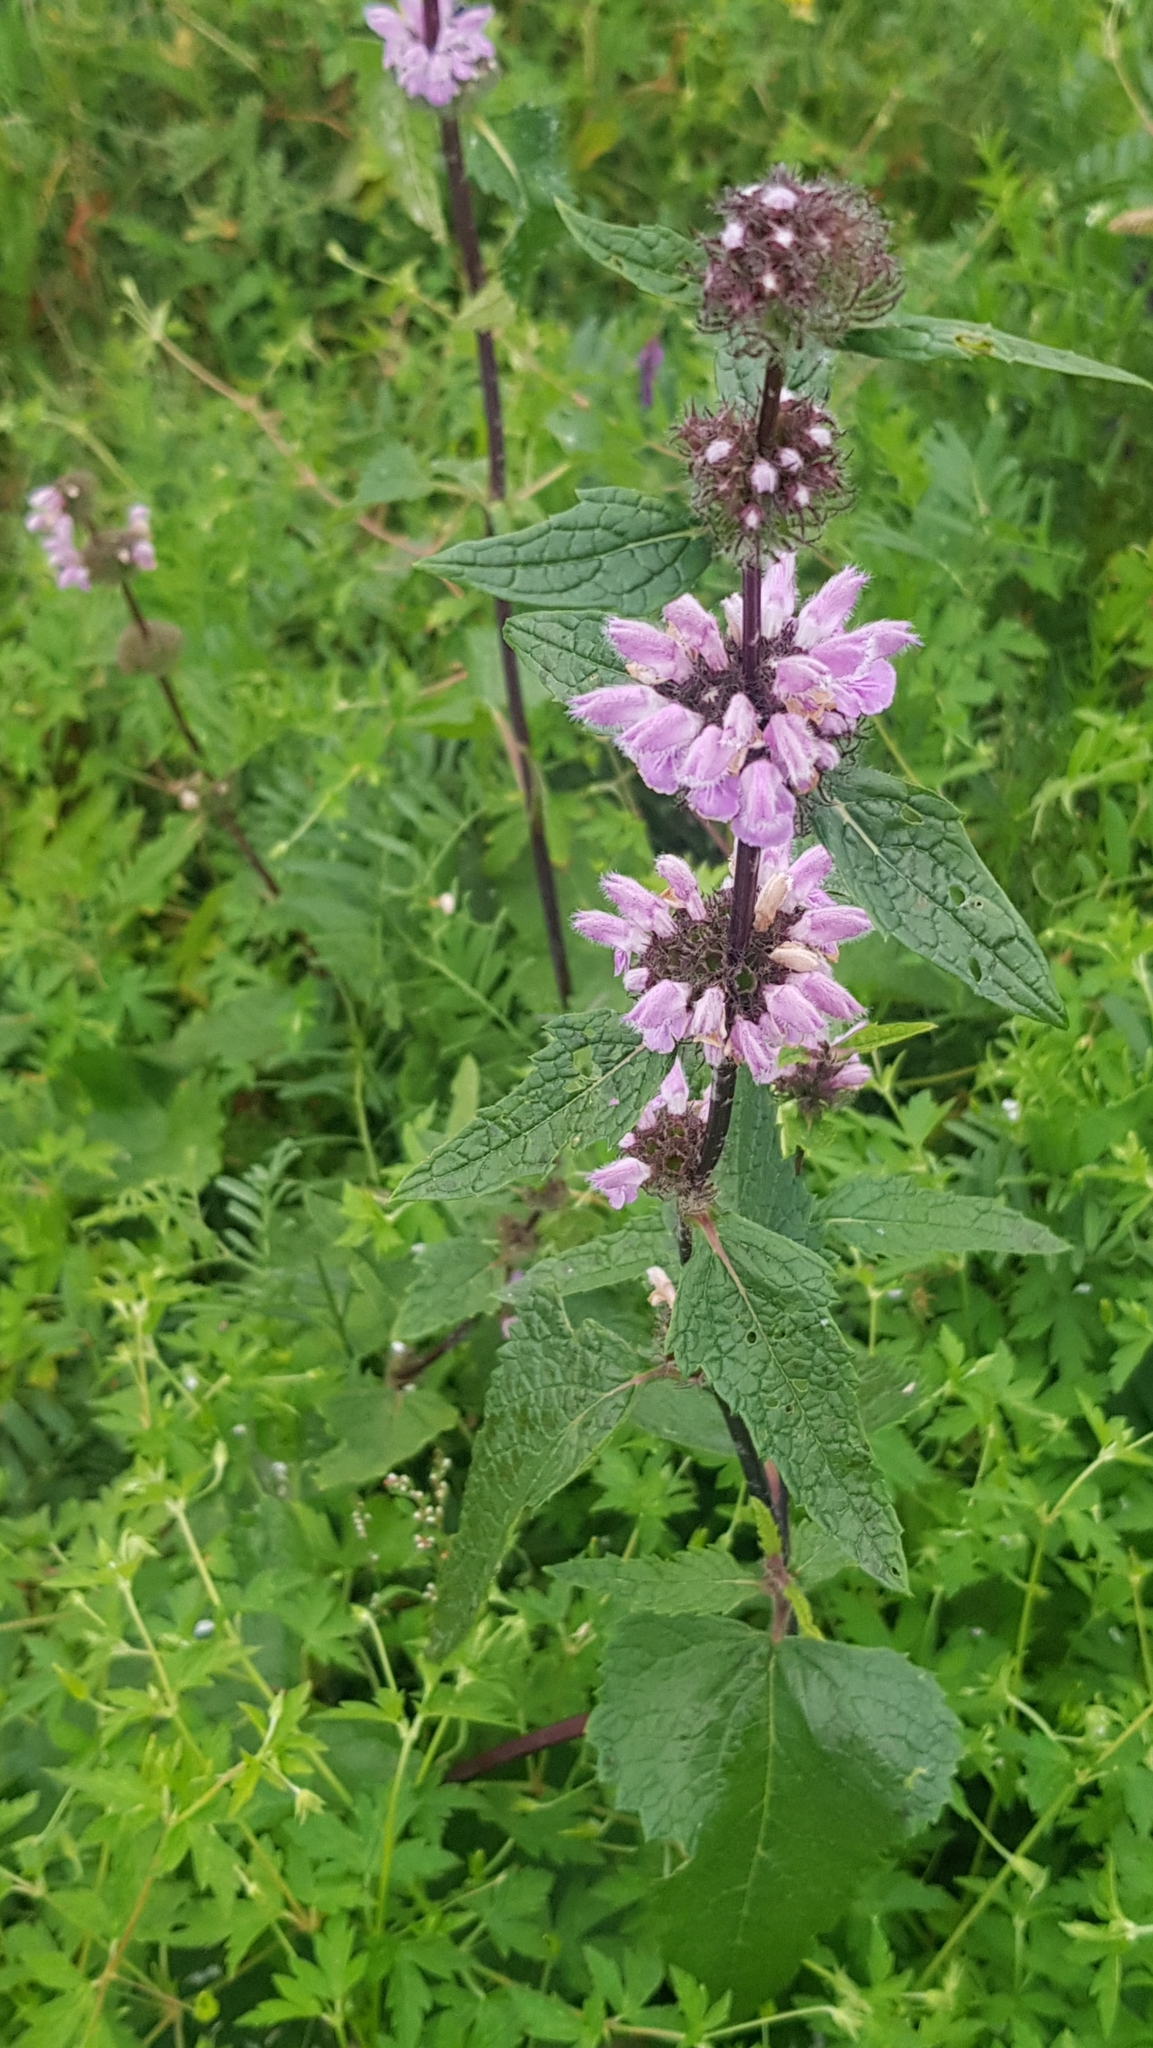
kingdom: Plantae
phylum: Tracheophyta
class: Magnoliopsida
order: Lamiales
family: Lamiaceae
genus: Phlomoides
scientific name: Phlomoides tuberosa
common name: Tuberous jerusalem sage
